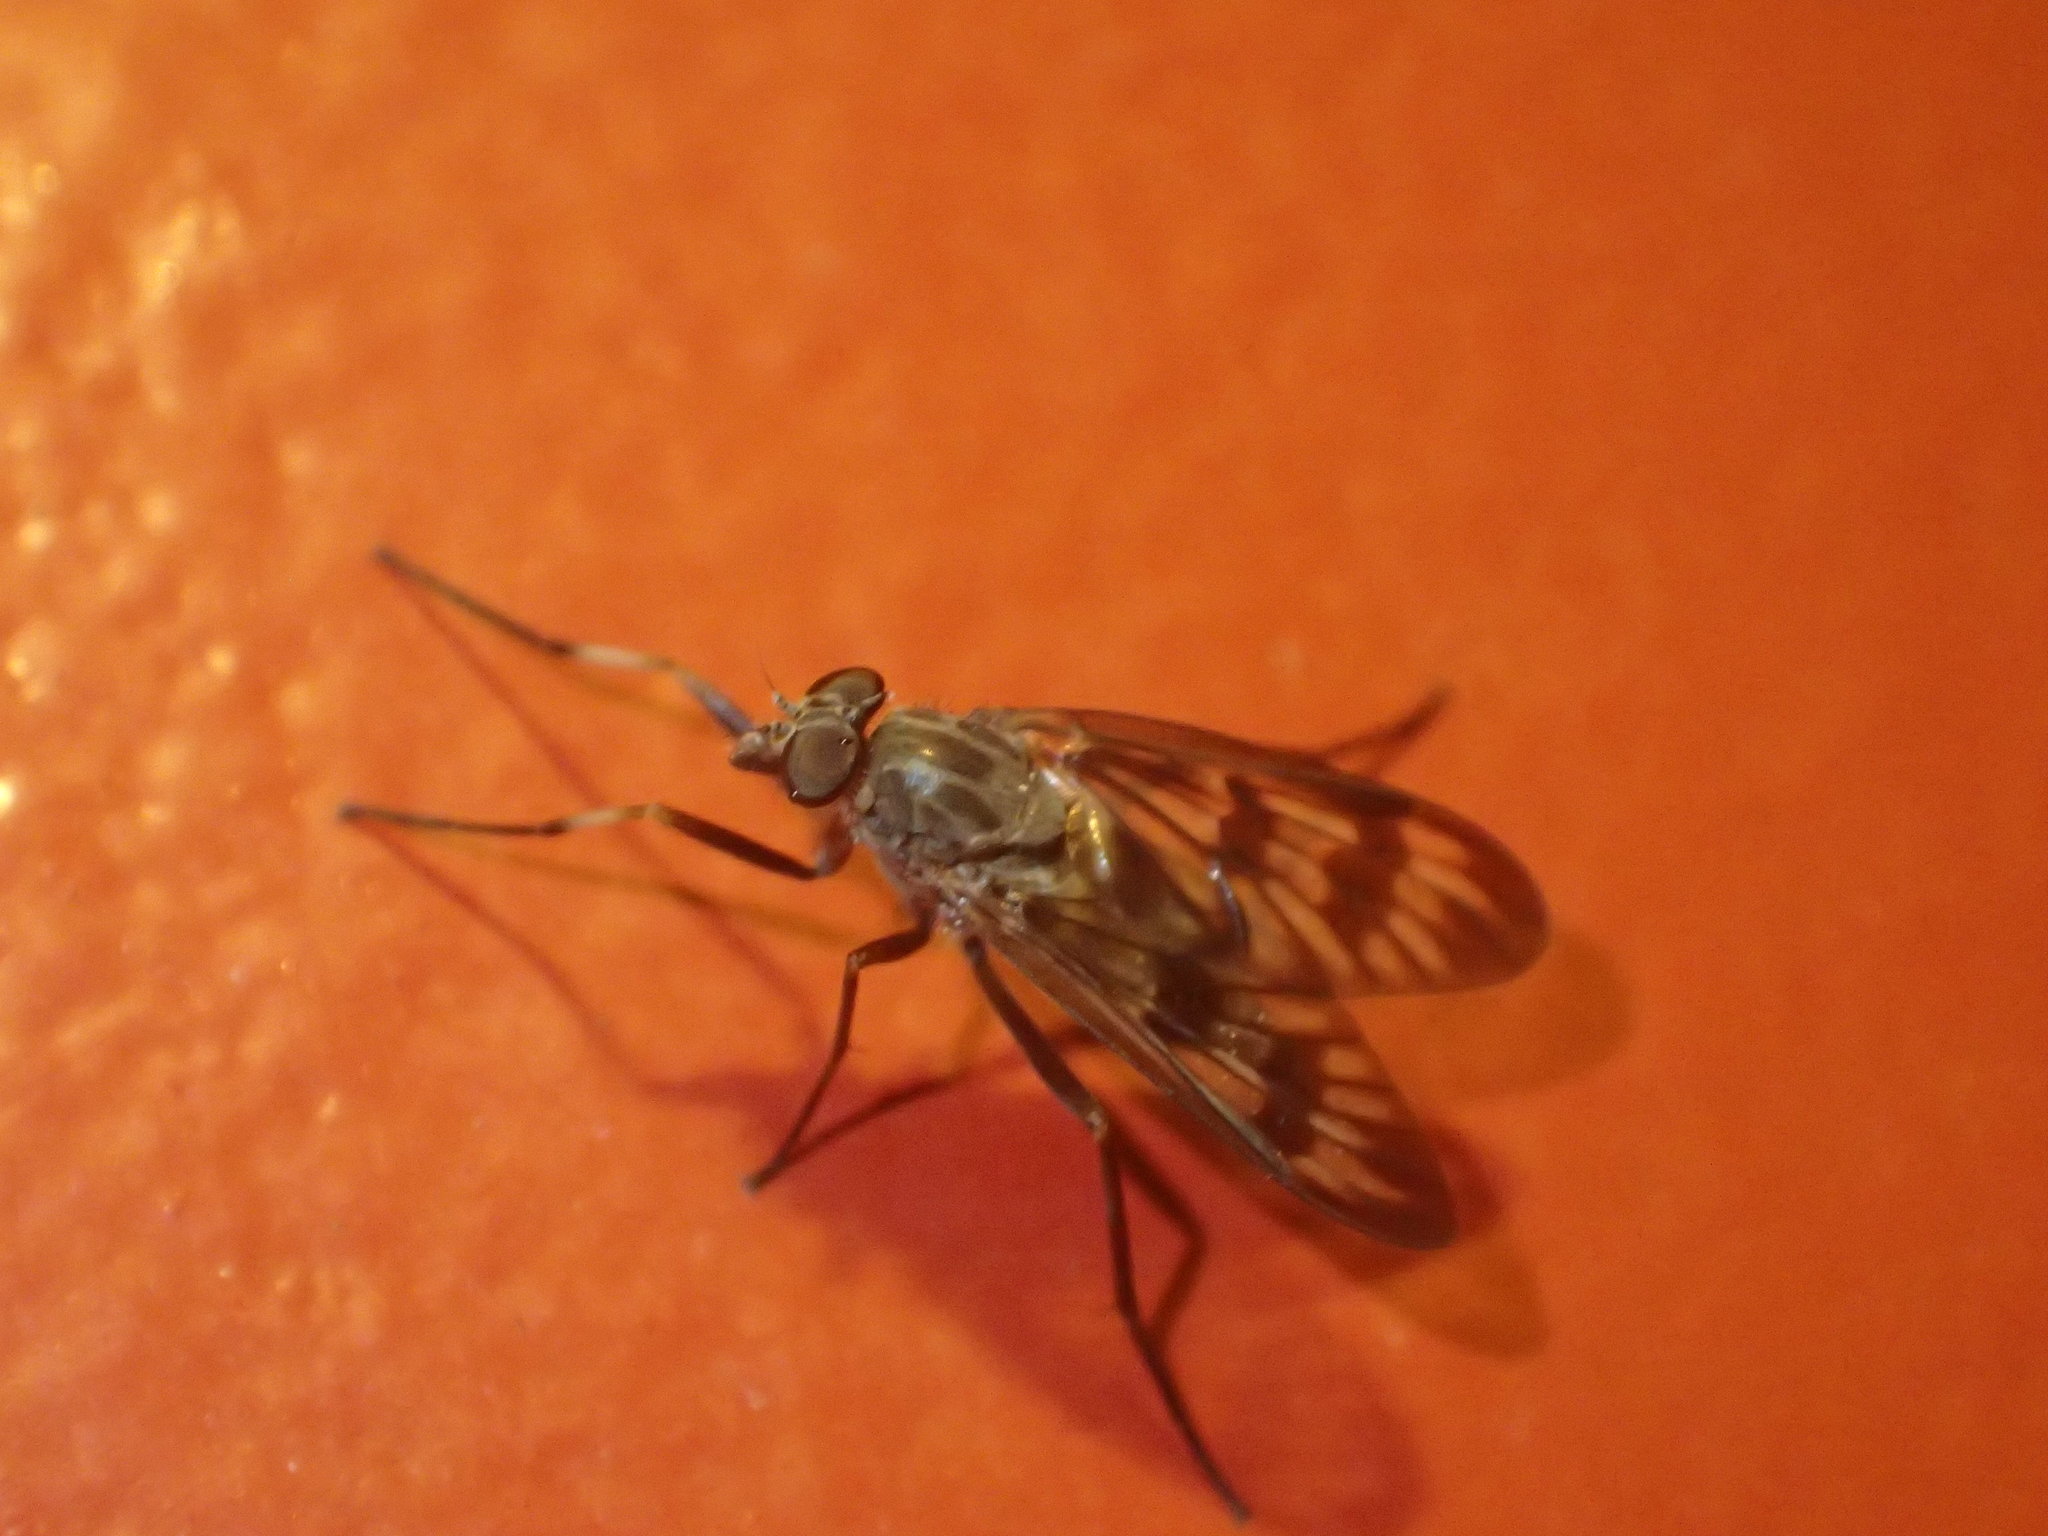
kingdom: Animalia
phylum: Arthropoda
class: Insecta
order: Diptera
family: Rhagionidae
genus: Rhagio
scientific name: Rhagio mystaceus
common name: Common snipe fly
